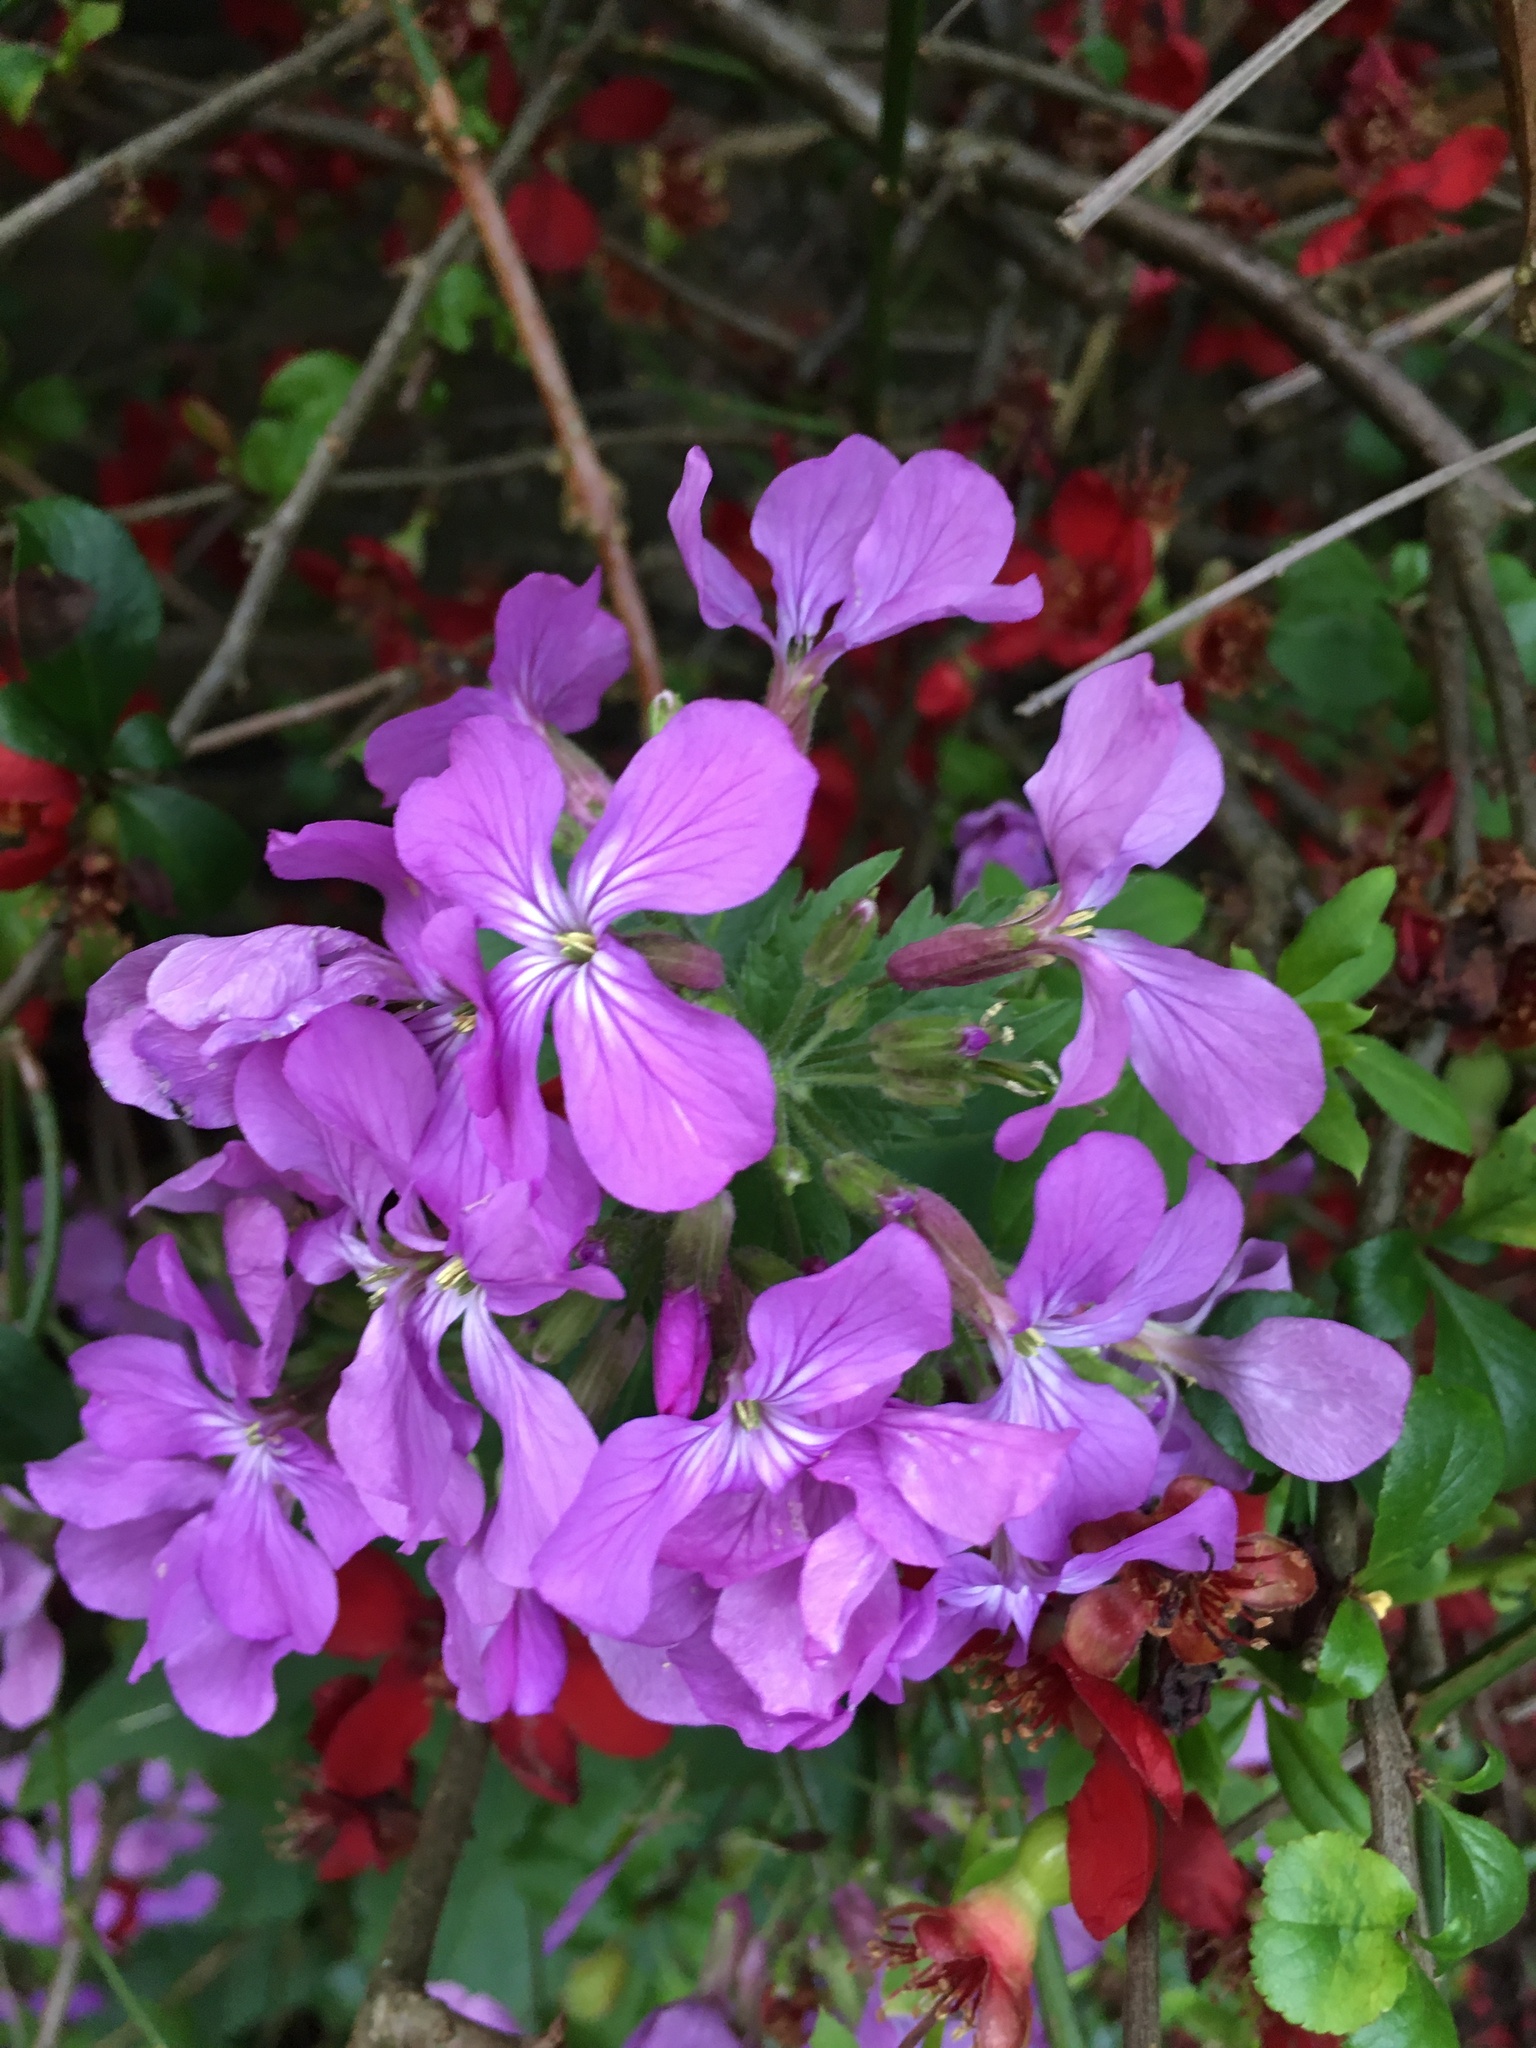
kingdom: Plantae
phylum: Tracheophyta
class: Magnoliopsida
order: Brassicales
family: Brassicaceae
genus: Lunaria
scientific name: Lunaria annua
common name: Honesty
